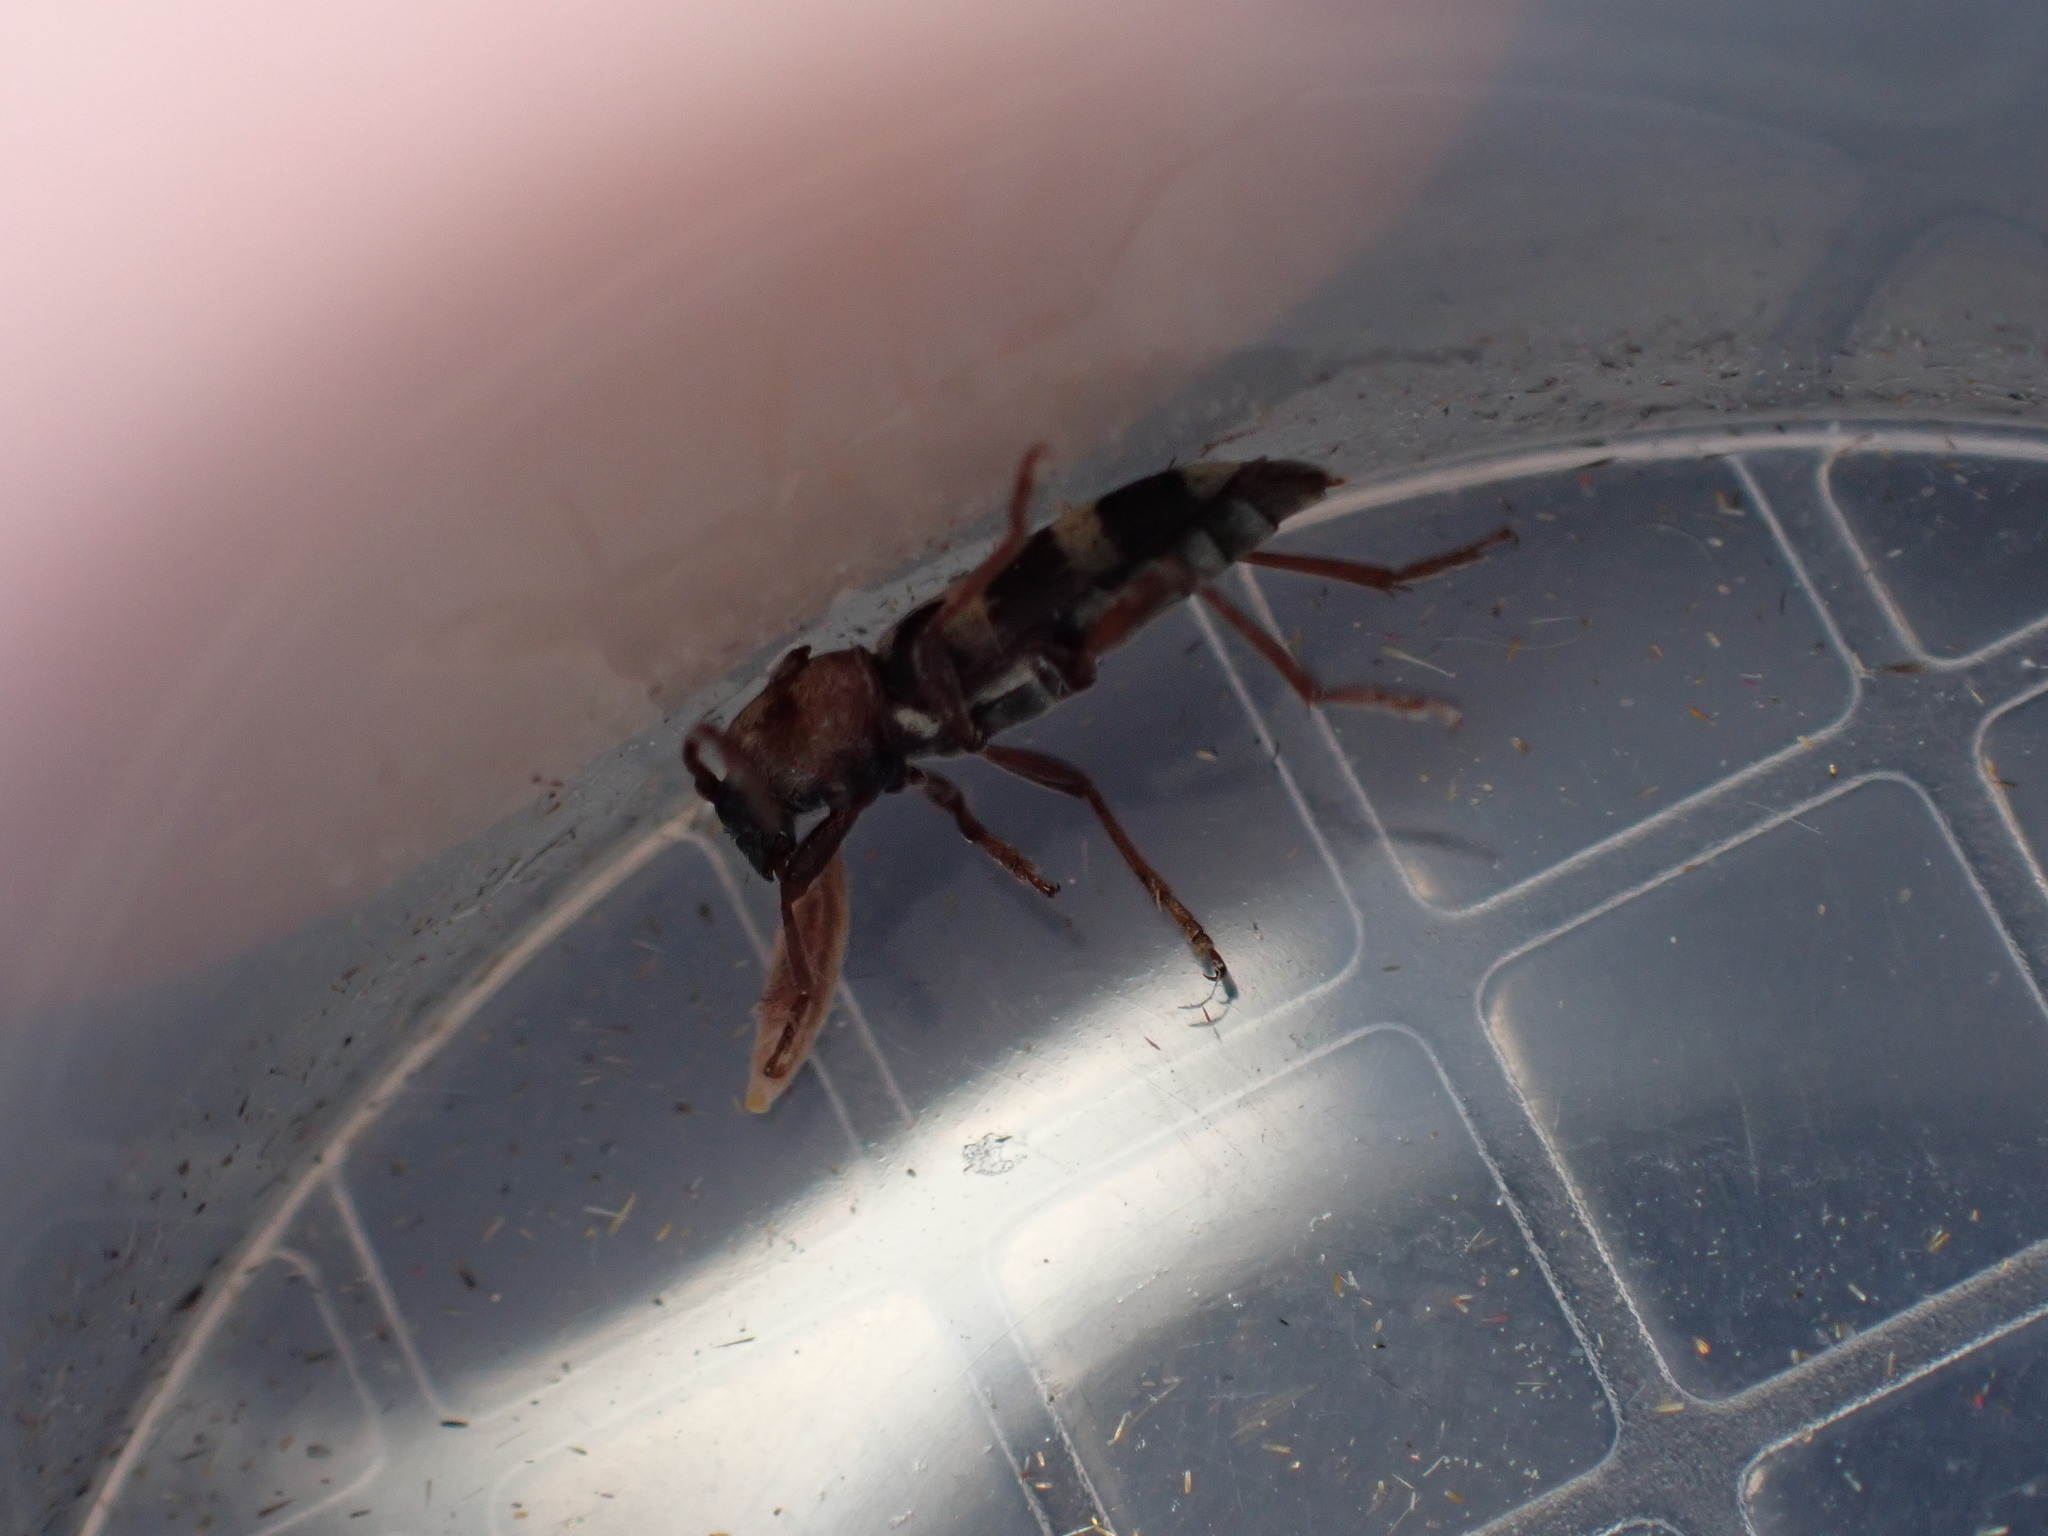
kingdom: Animalia
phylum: Arthropoda
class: Insecta
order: Coleoptera
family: Cerambycidae
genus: Chlorophorus
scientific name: Chlorophorus trifasciatus
